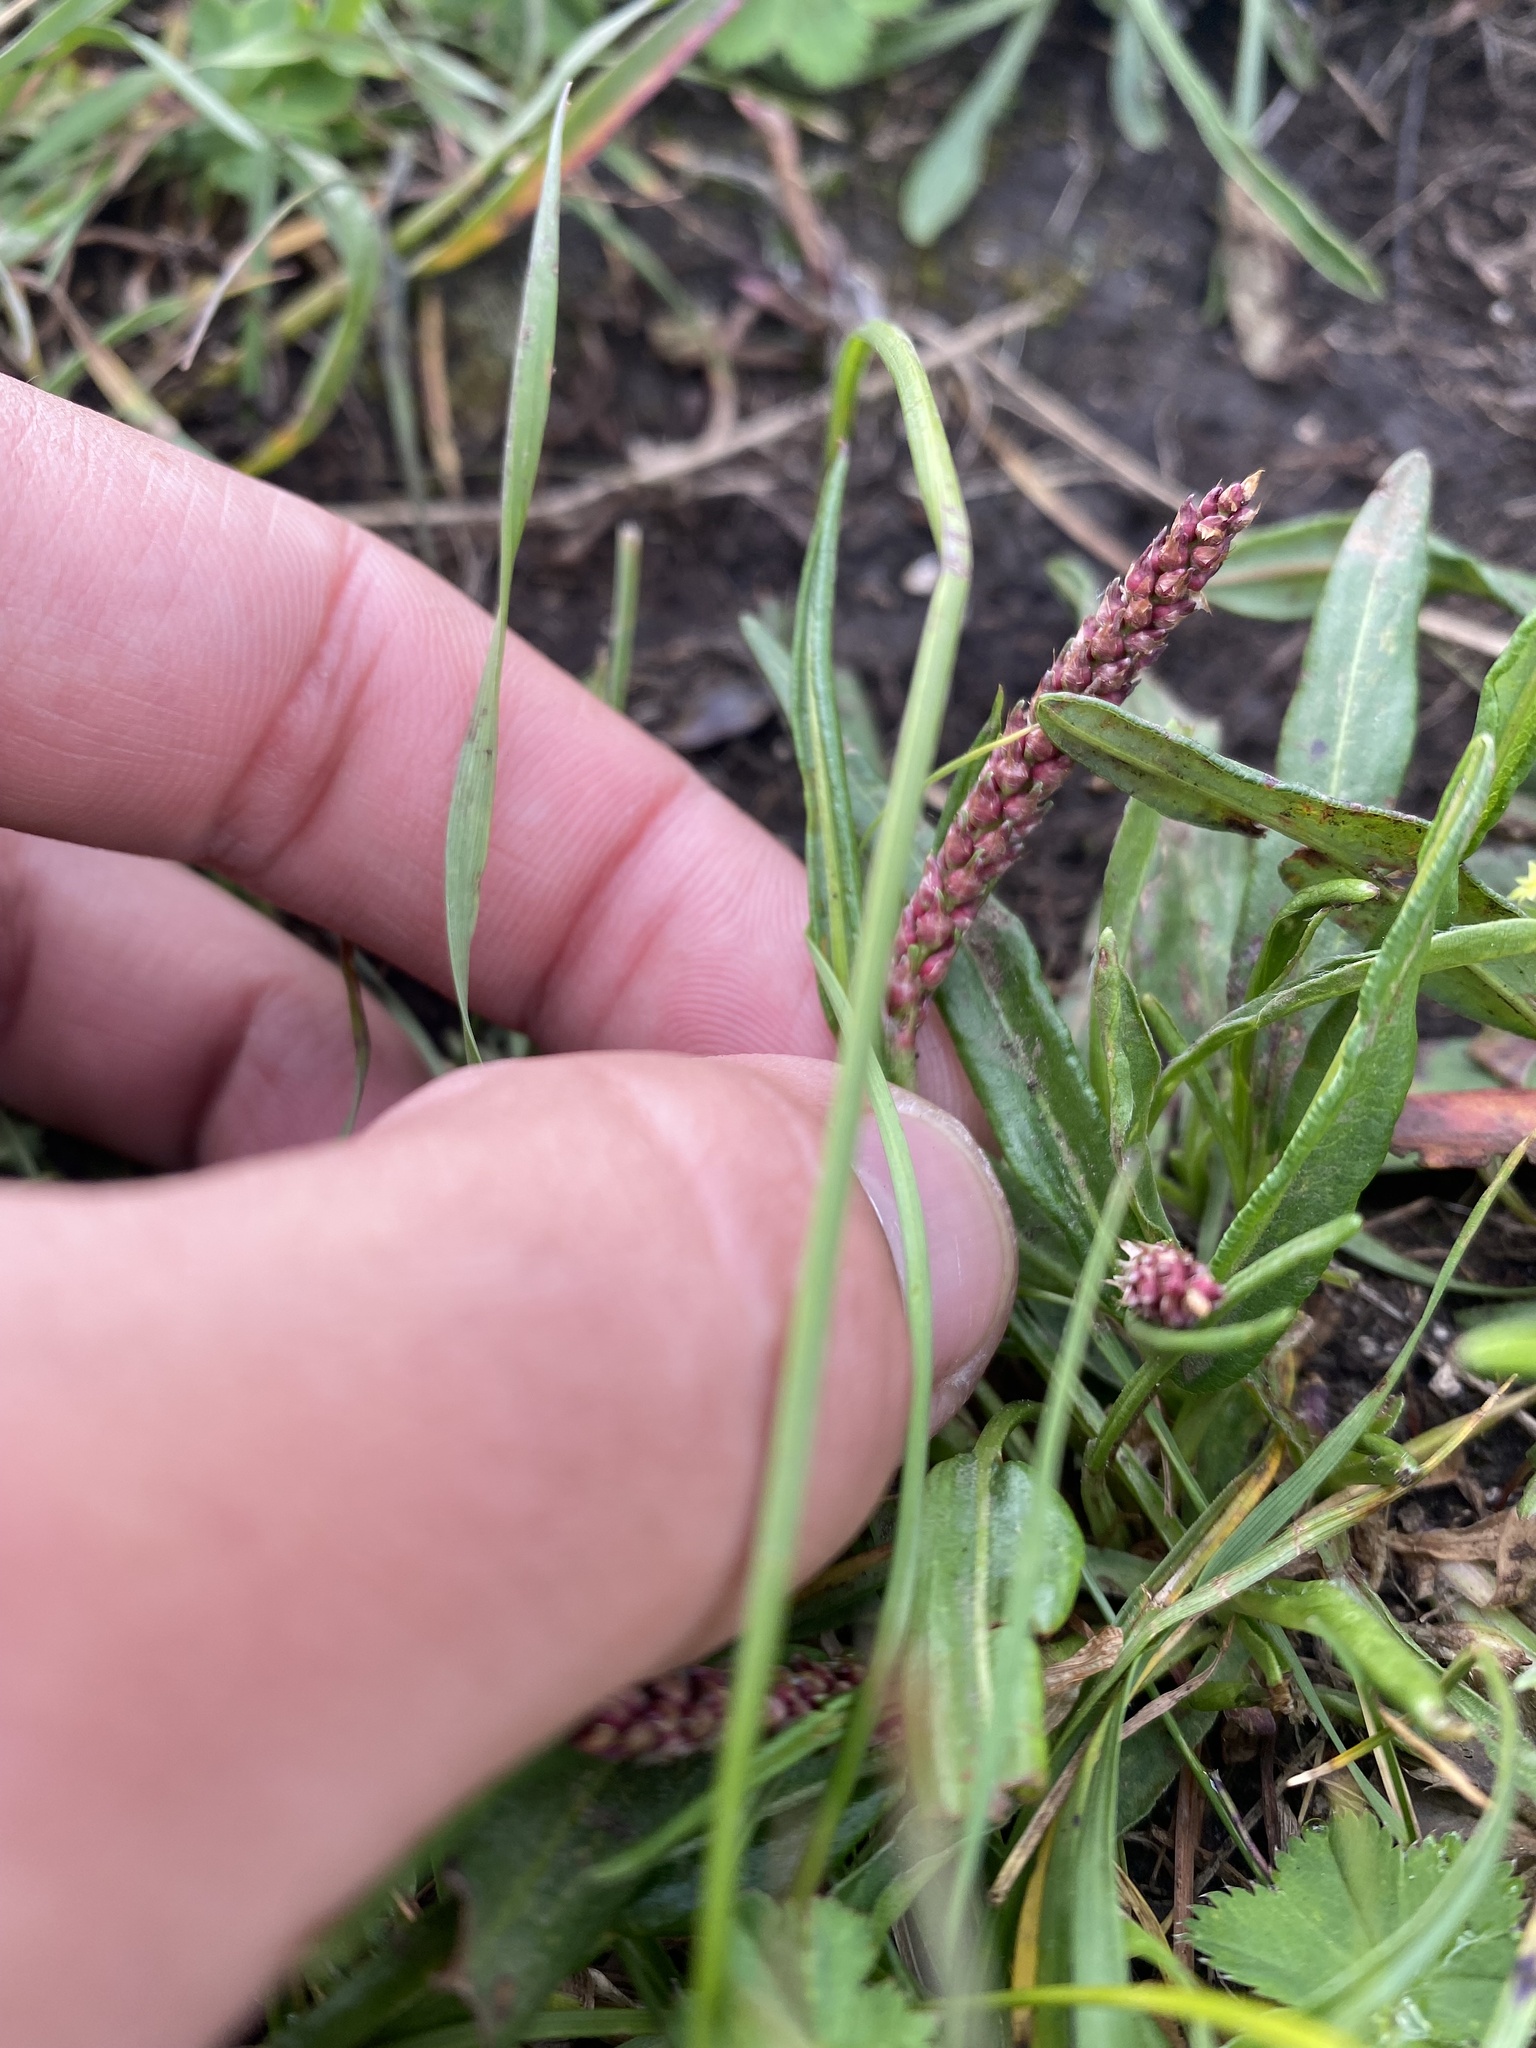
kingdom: Plantae
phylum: Tracheophyta
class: Magnoliopsida
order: Caryophyllales
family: Polygonaceae
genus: Bistorta
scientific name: Bistorta vivipara
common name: Alpine bistort
